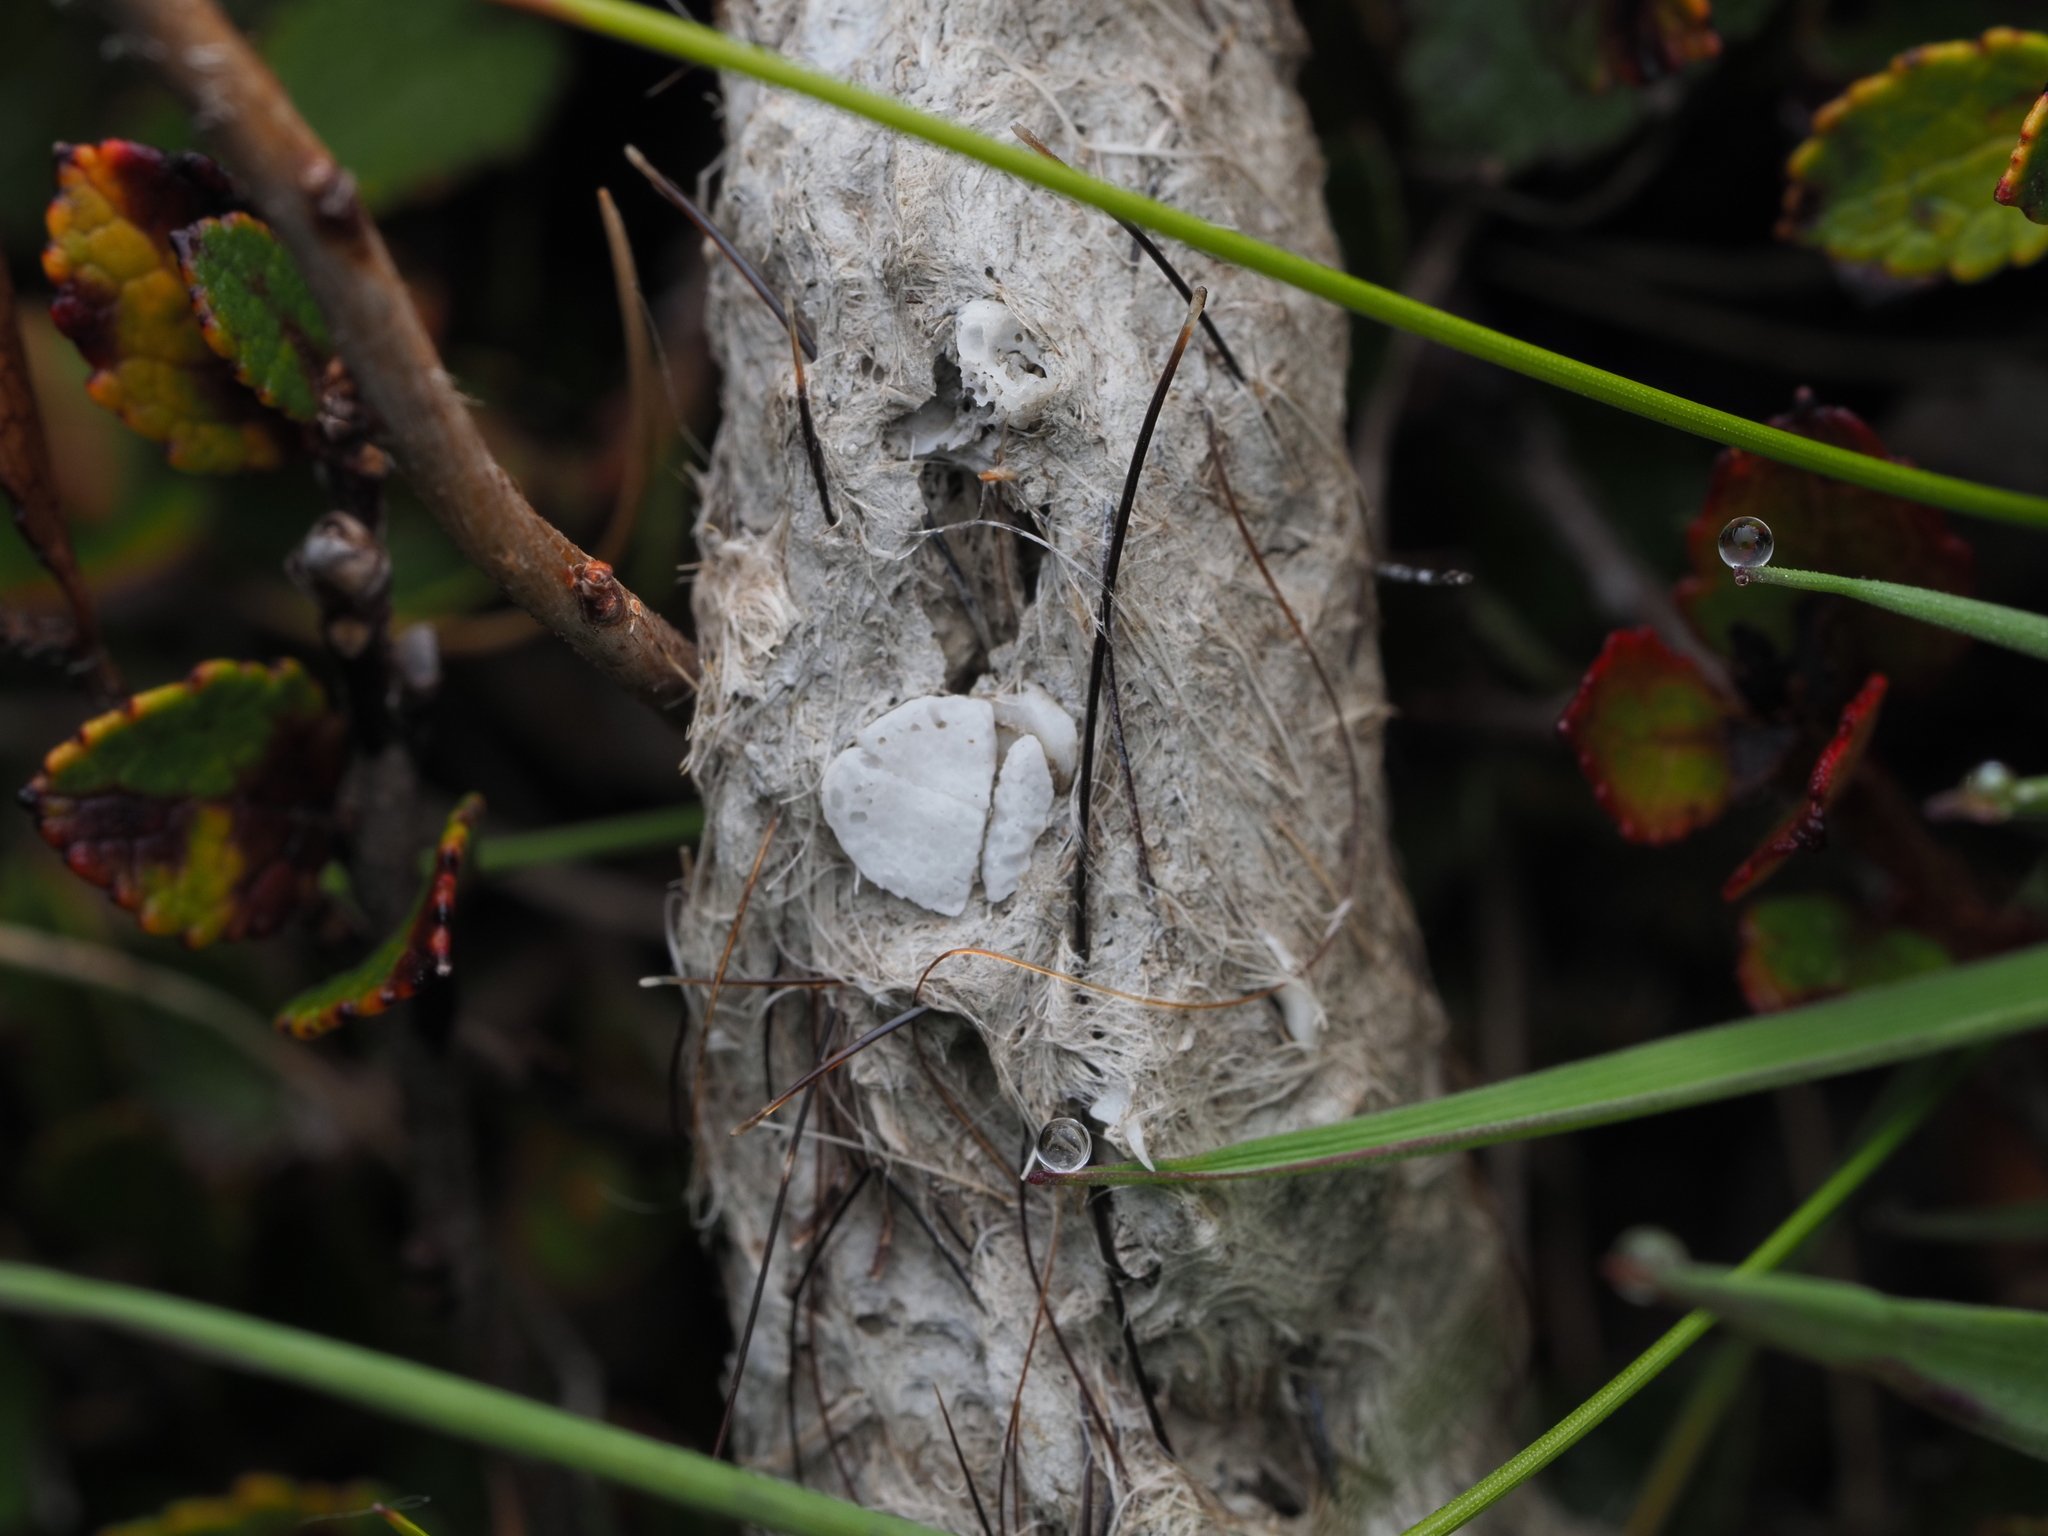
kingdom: Animalia
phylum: Chordata
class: Mammalia
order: Carnivora
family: Felidae
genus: Felis
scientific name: Felis catus
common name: Domestic cat
